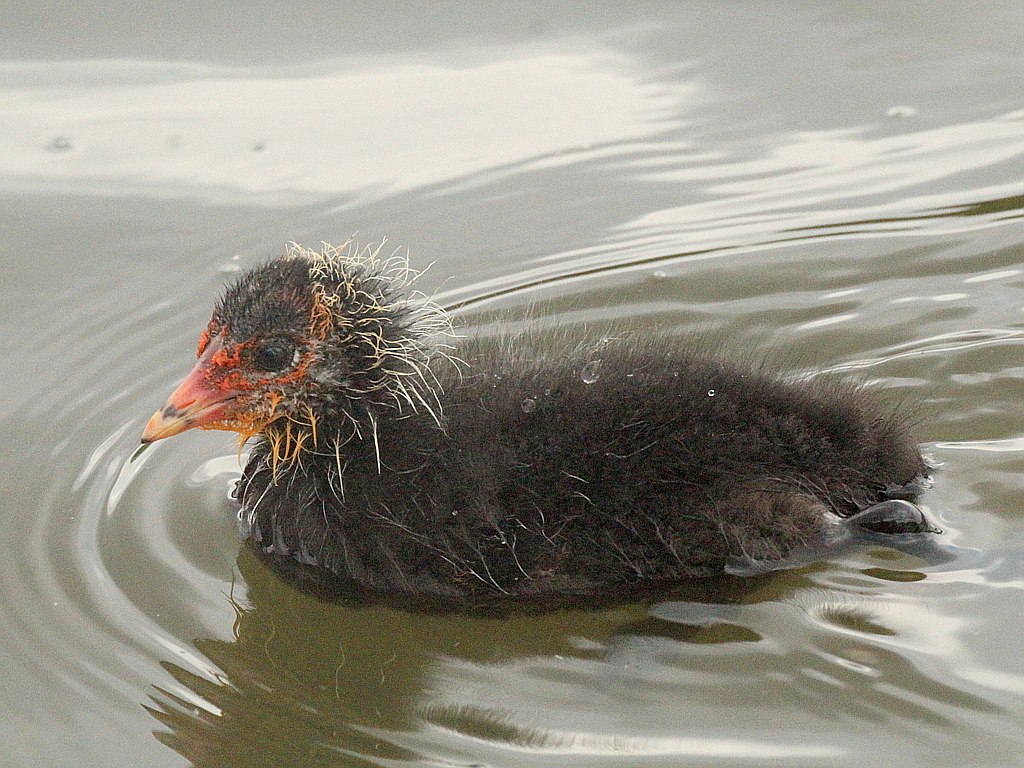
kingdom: Animalia
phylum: Chordata
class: Aves
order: Gruiformes
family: Rallidae
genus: Fulica
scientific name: Fulica atra
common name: Eurasian coot
